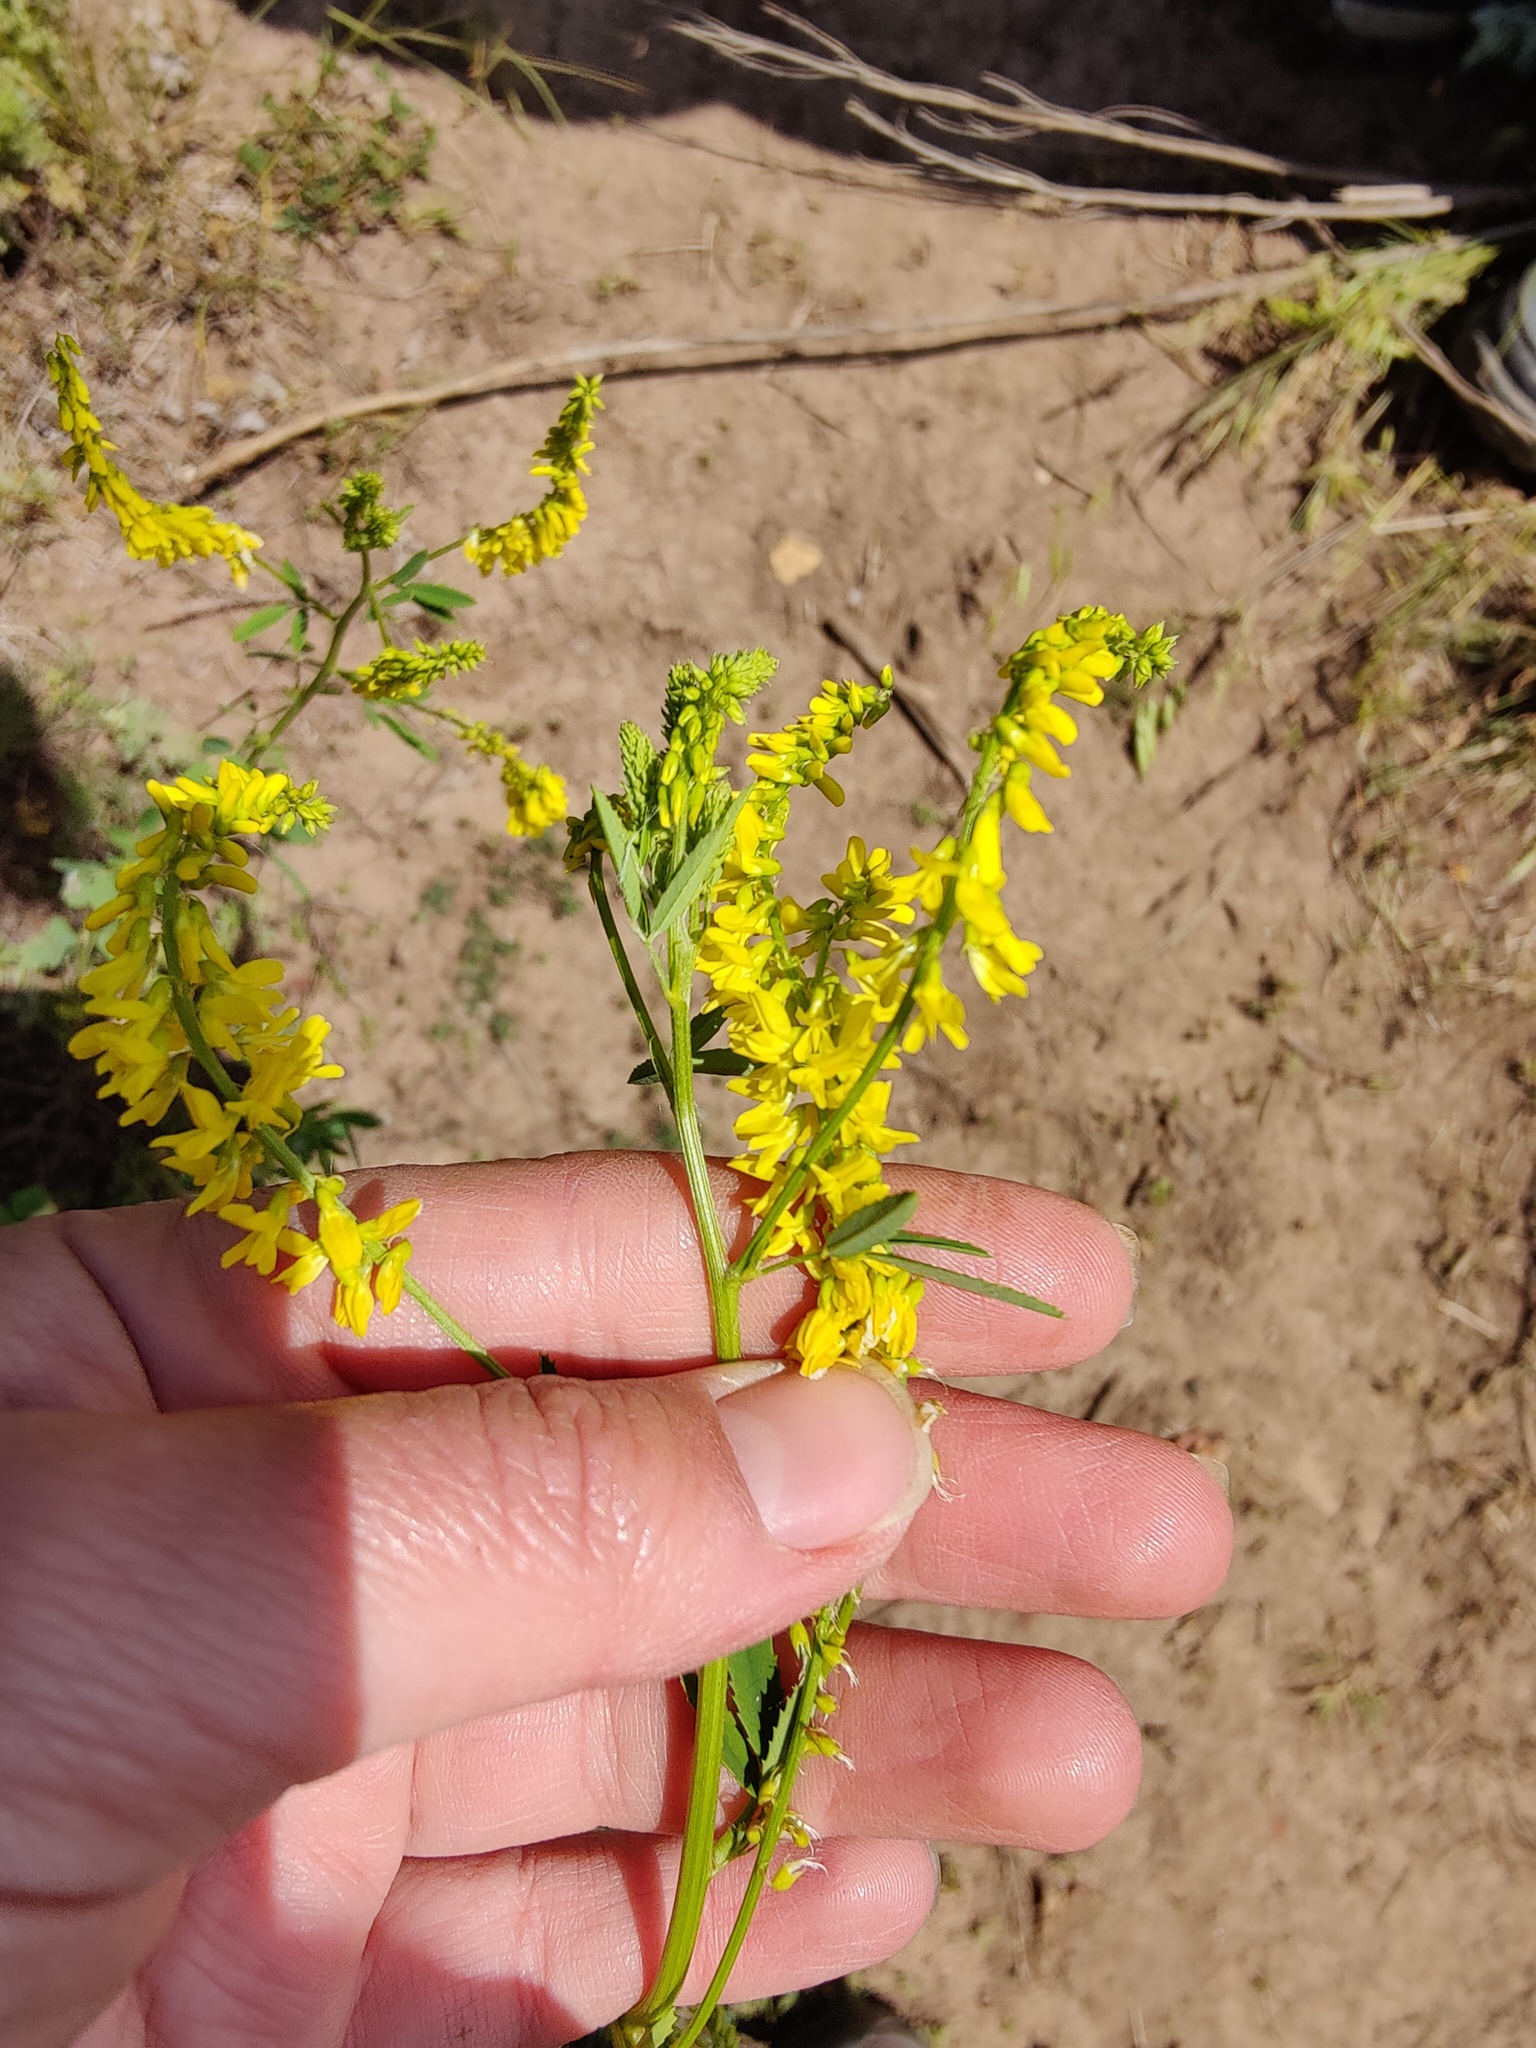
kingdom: Plantae
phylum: Tracheophyta
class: Magnoliopsida
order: Fabales
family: Fabaceae
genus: Melilotus
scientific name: Melilotus officinalis
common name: Sweetclover
